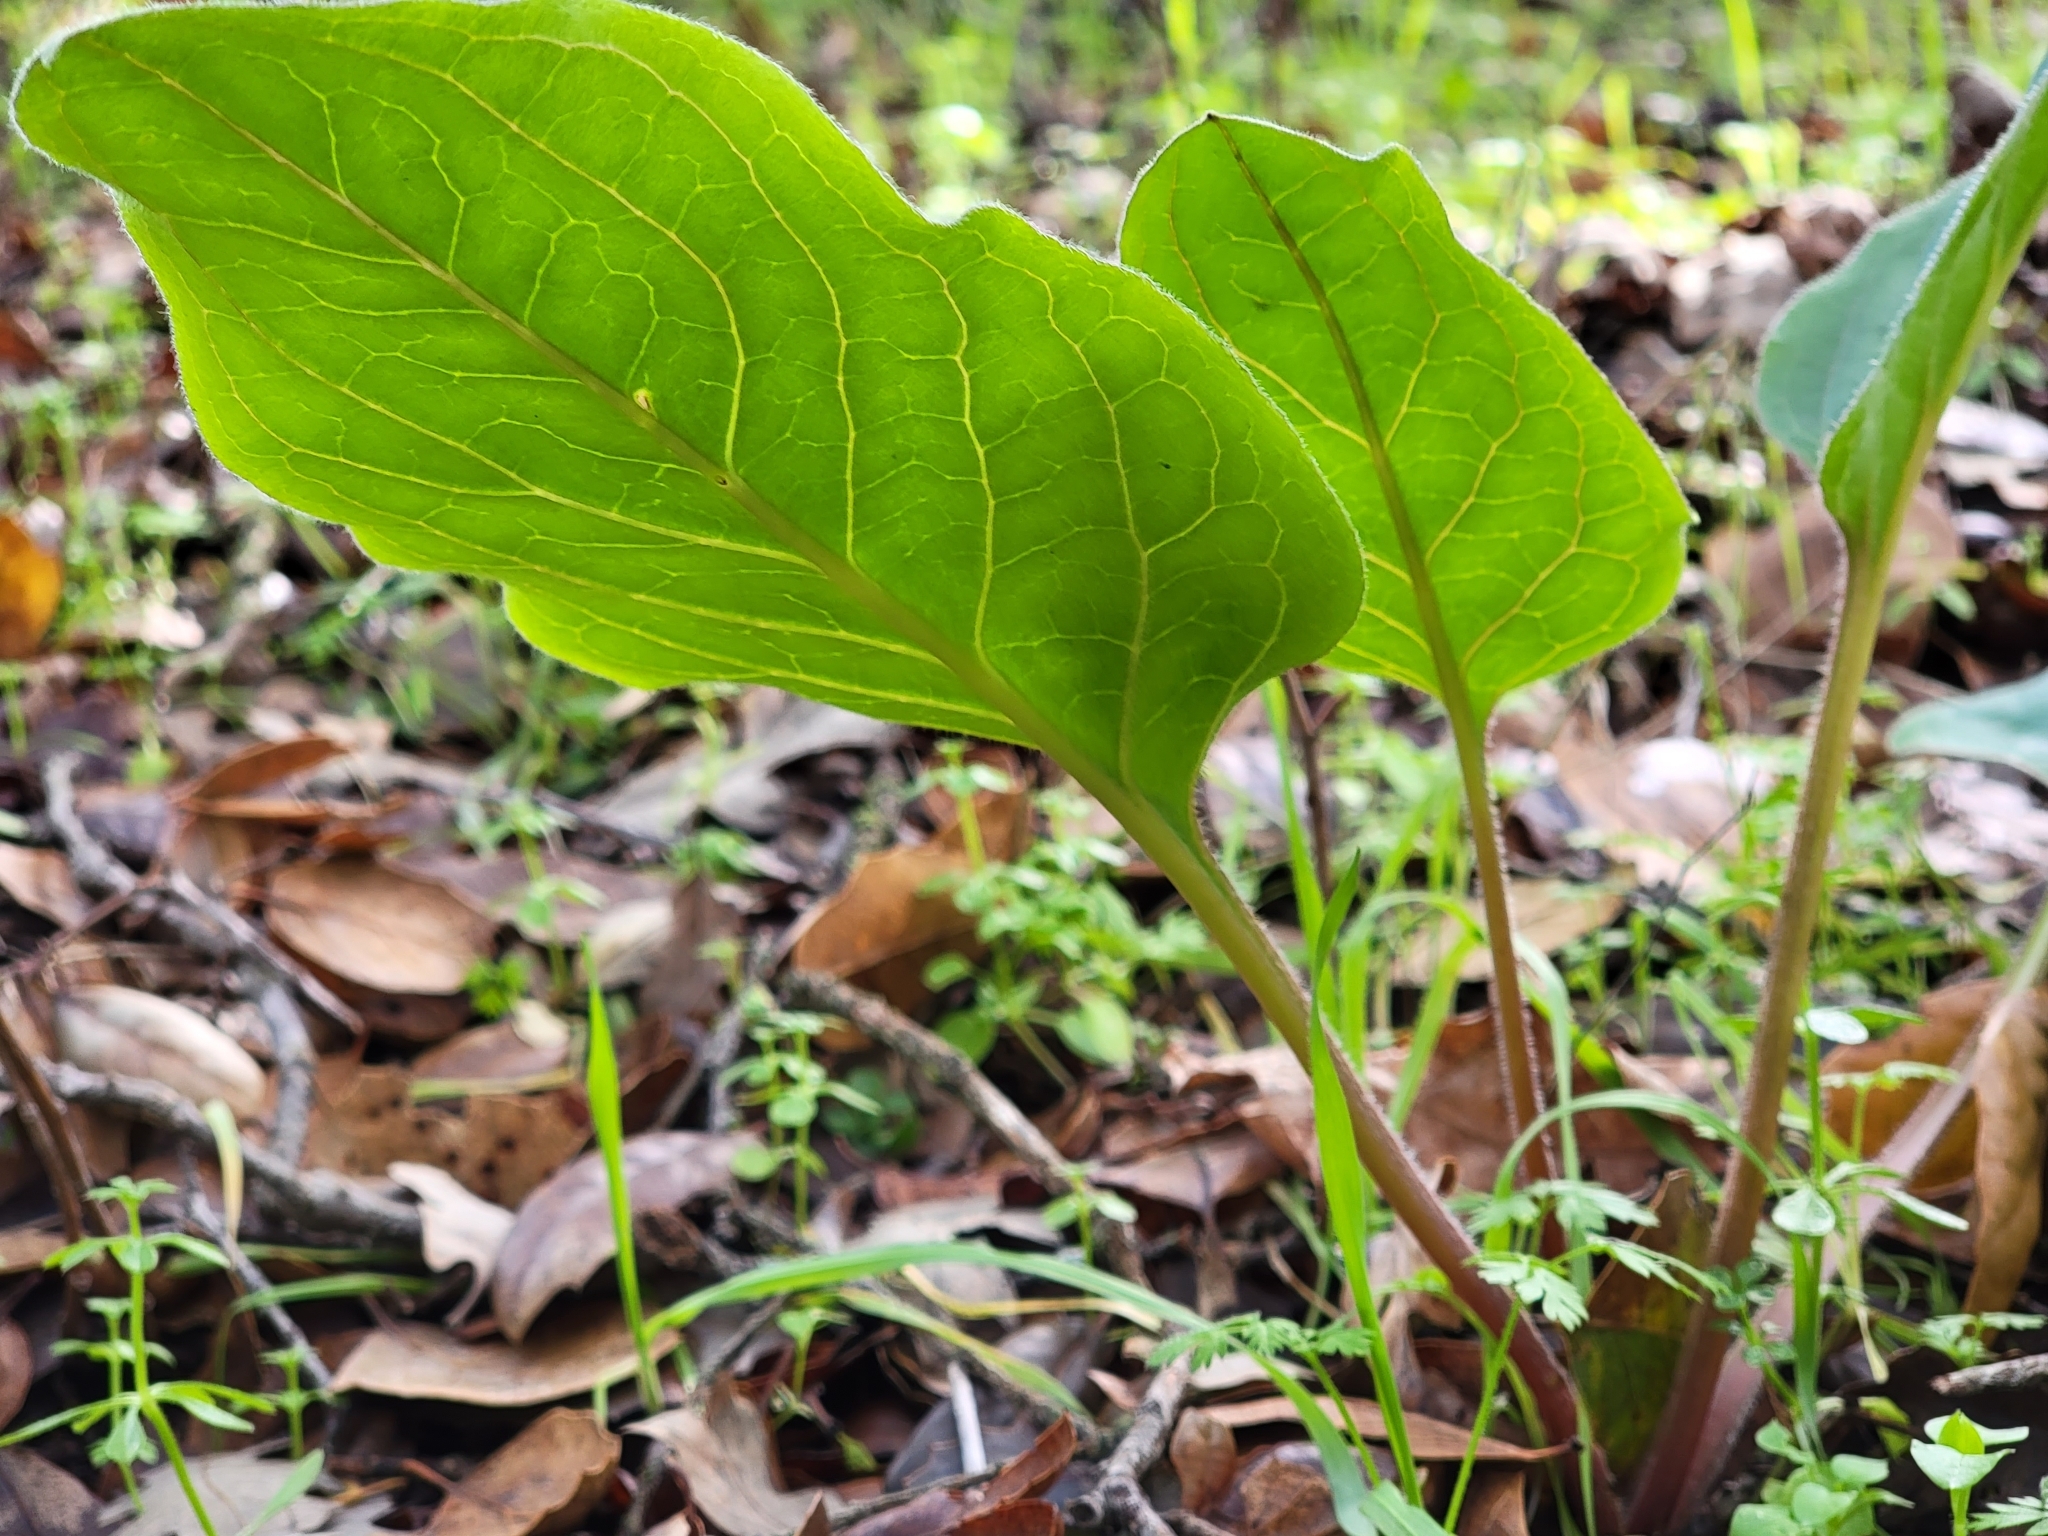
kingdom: Plantae
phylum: Tracheophyta
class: Magnoliopsida
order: Boraginales
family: Boraginaceae
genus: Adelinia
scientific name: Adelinia grande
